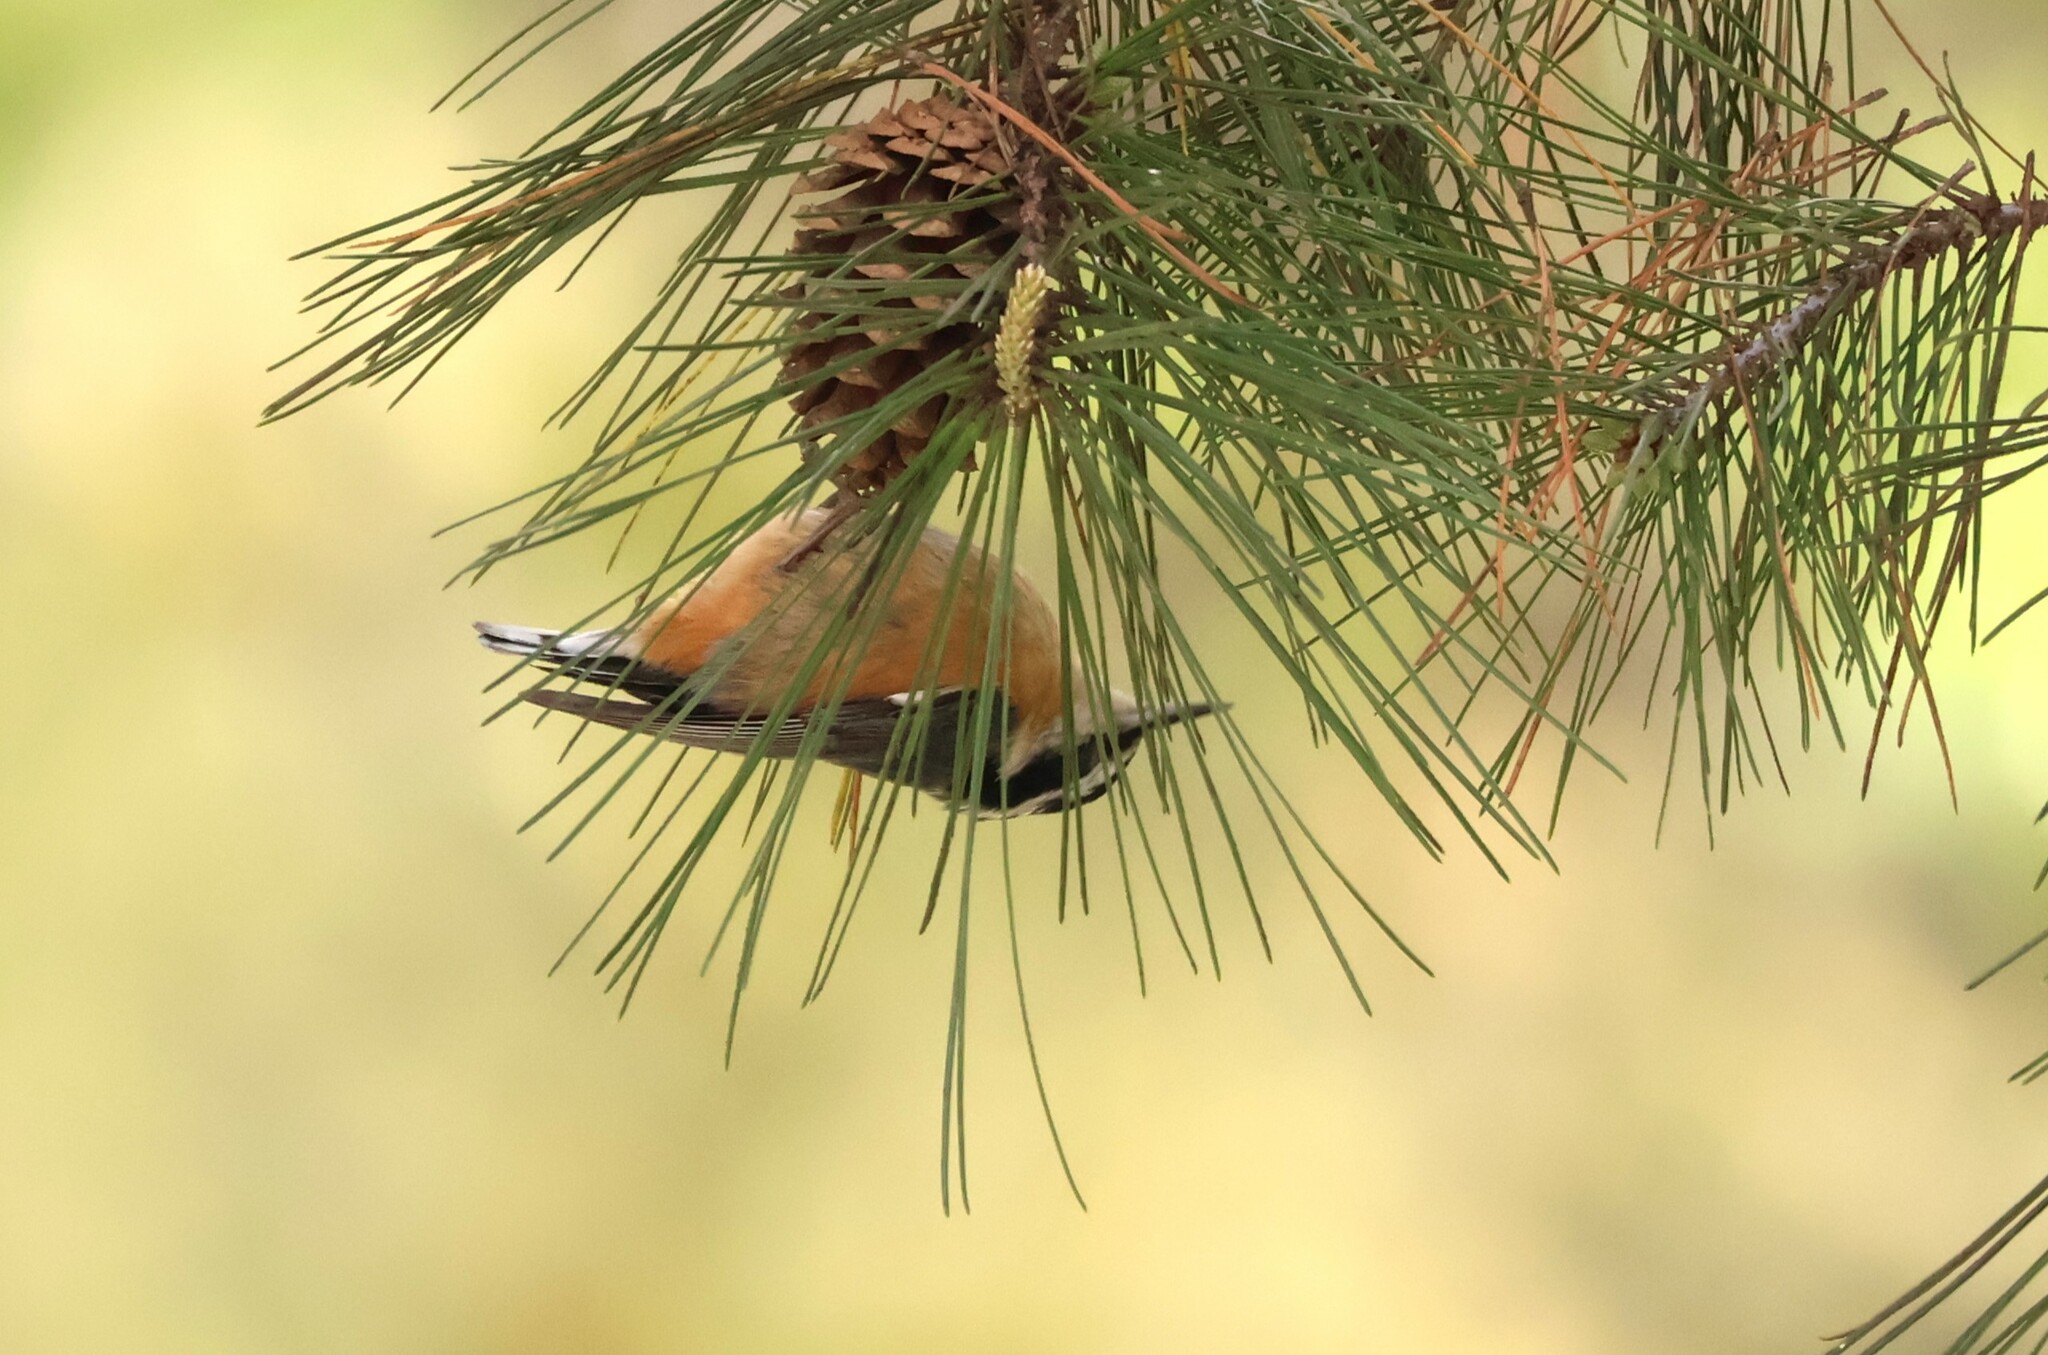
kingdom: Animalia
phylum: Chordata
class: Aves
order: Passeriformes
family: Sittidae
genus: Sitta
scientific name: Sitta canadensis
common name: Red-breasted nuthatch
